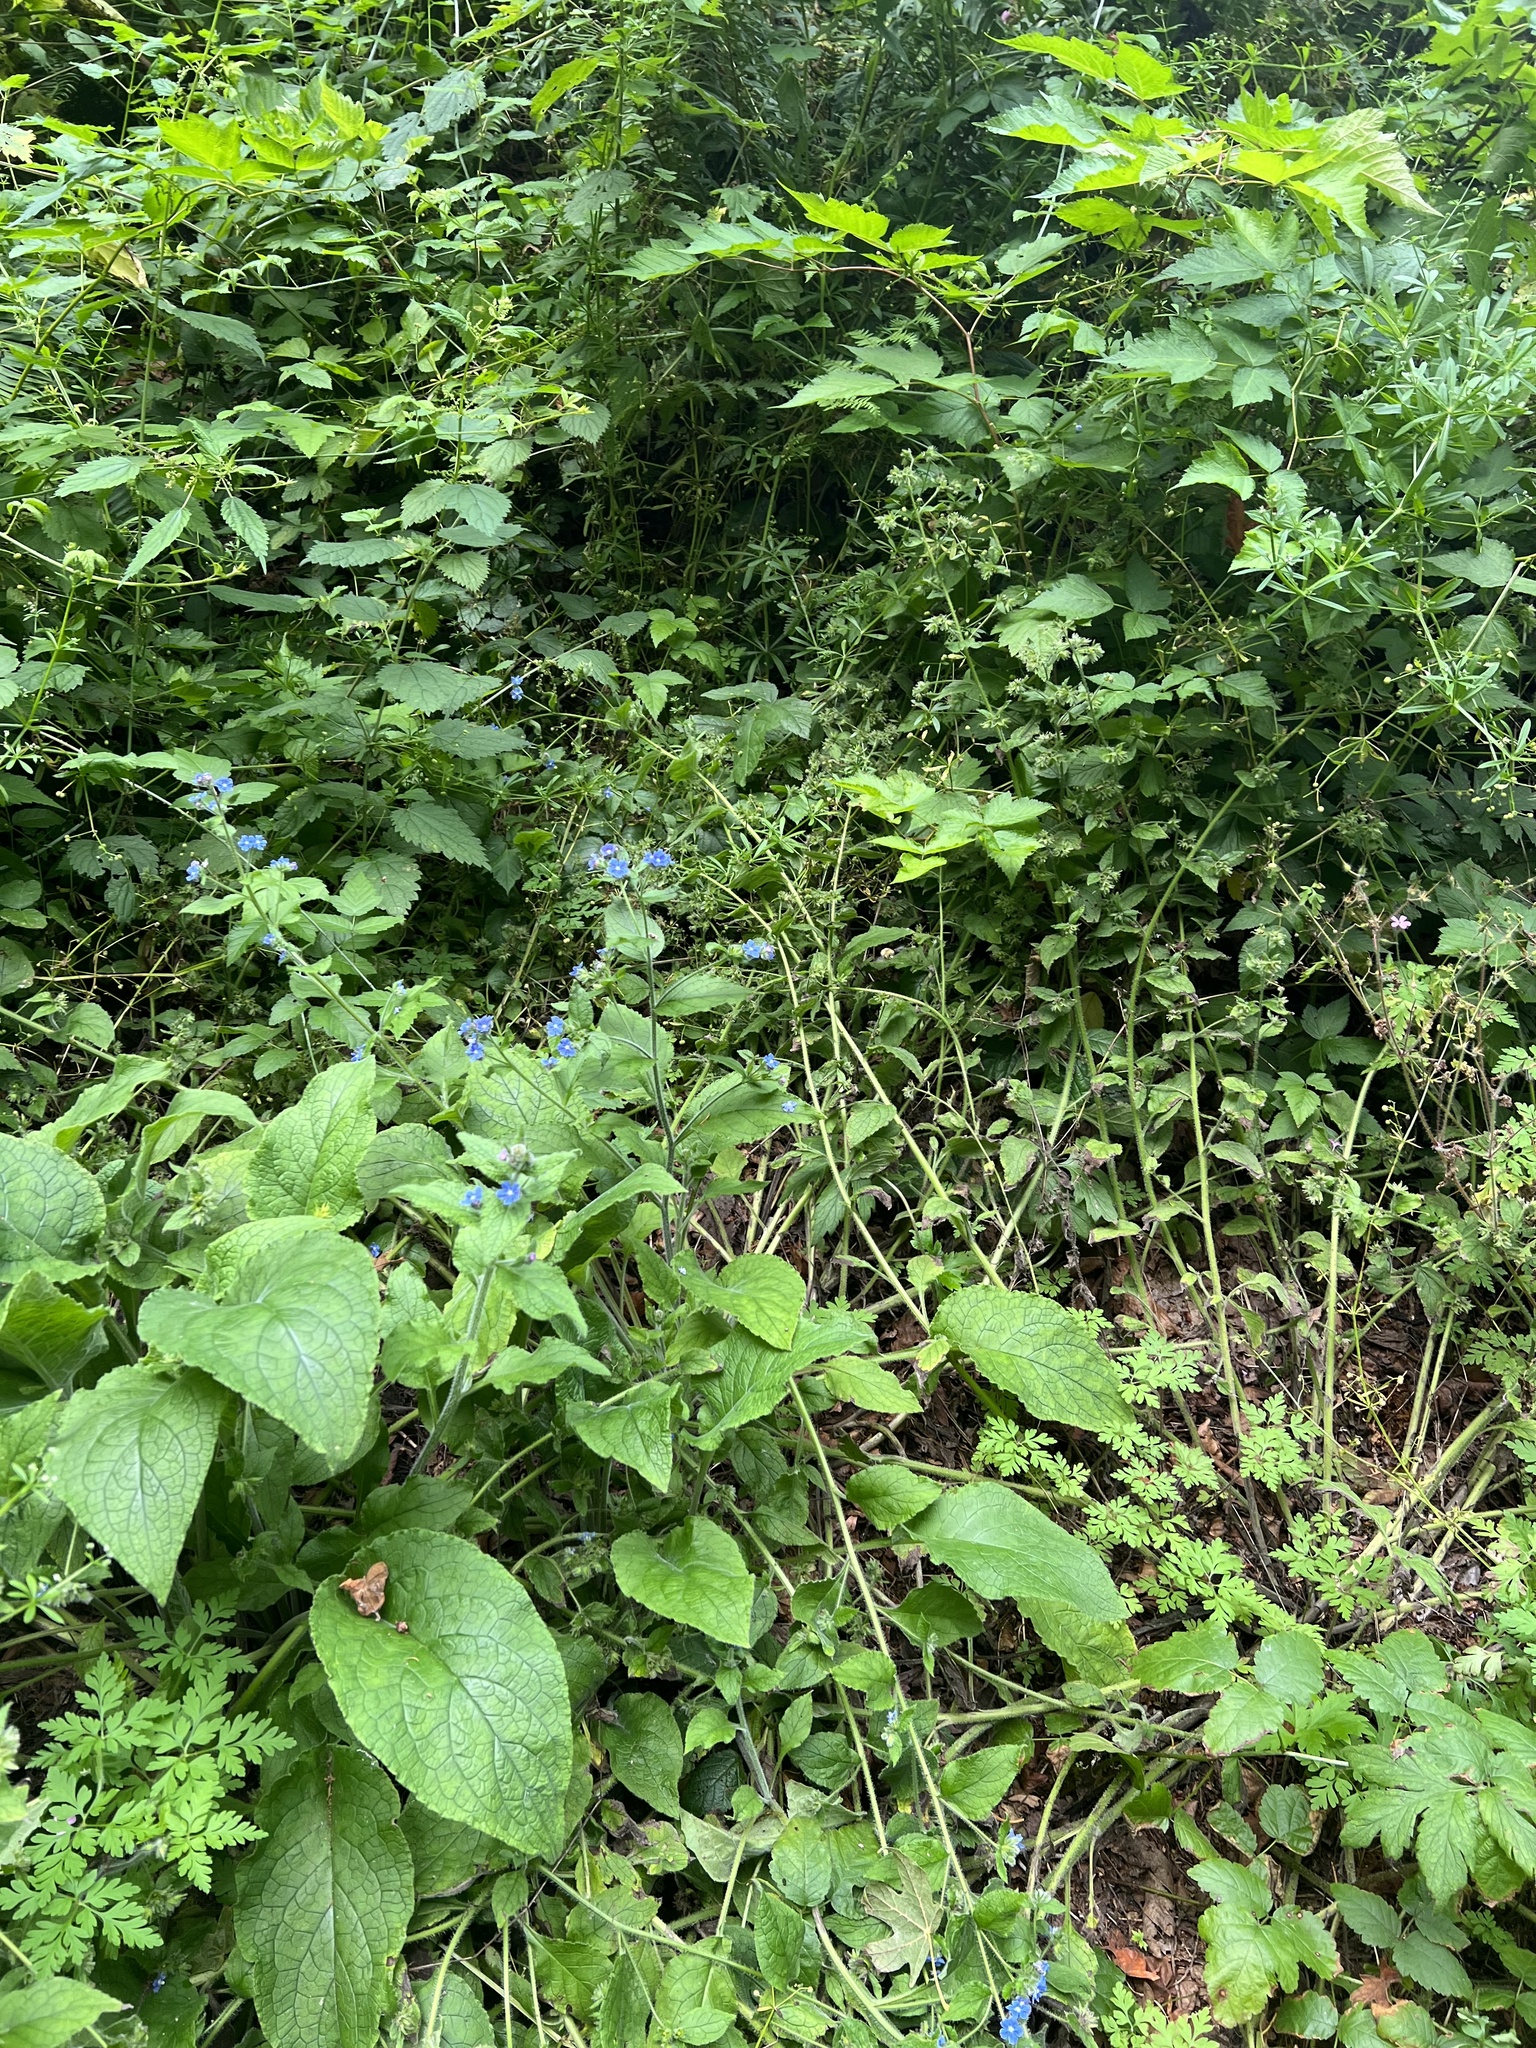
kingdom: Plantae
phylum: Tracheophyta
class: Magnoliopsida
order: Boraginales
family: Boraginaceae
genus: Pentaglottis
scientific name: Pentaglottis sempervirens
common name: Green alkanet
